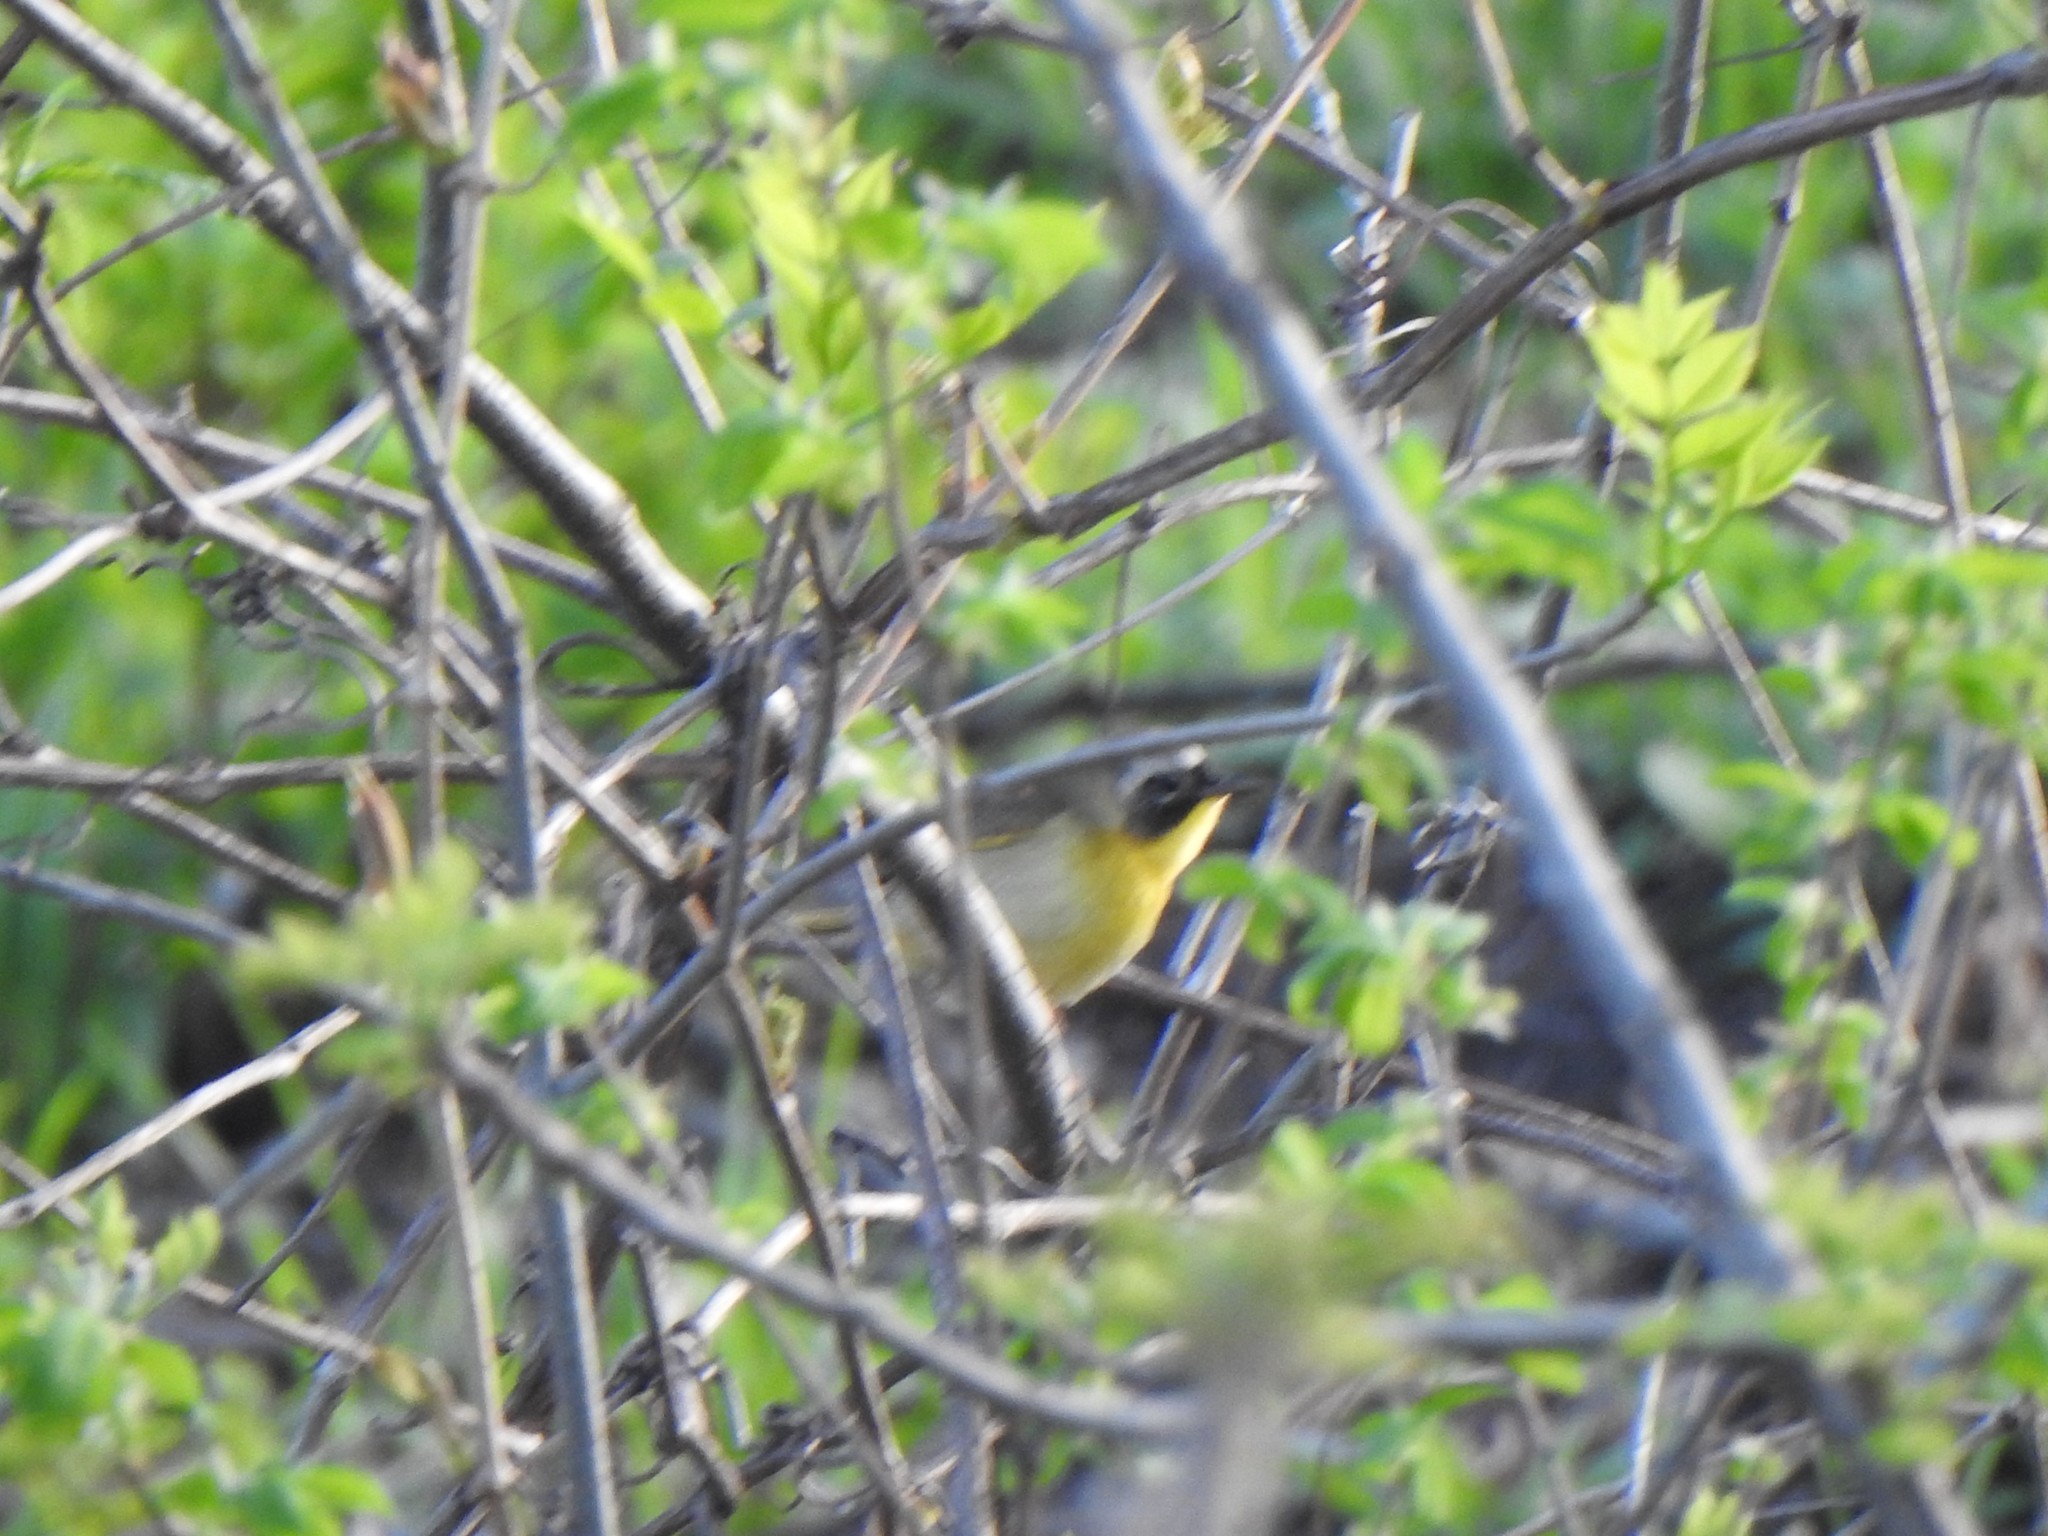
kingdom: Animalia
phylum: Chordata
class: Aves
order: Passeriformes
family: Parulidae
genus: Geothlypis
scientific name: Geothlypis trichas
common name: Common yellowthroat
